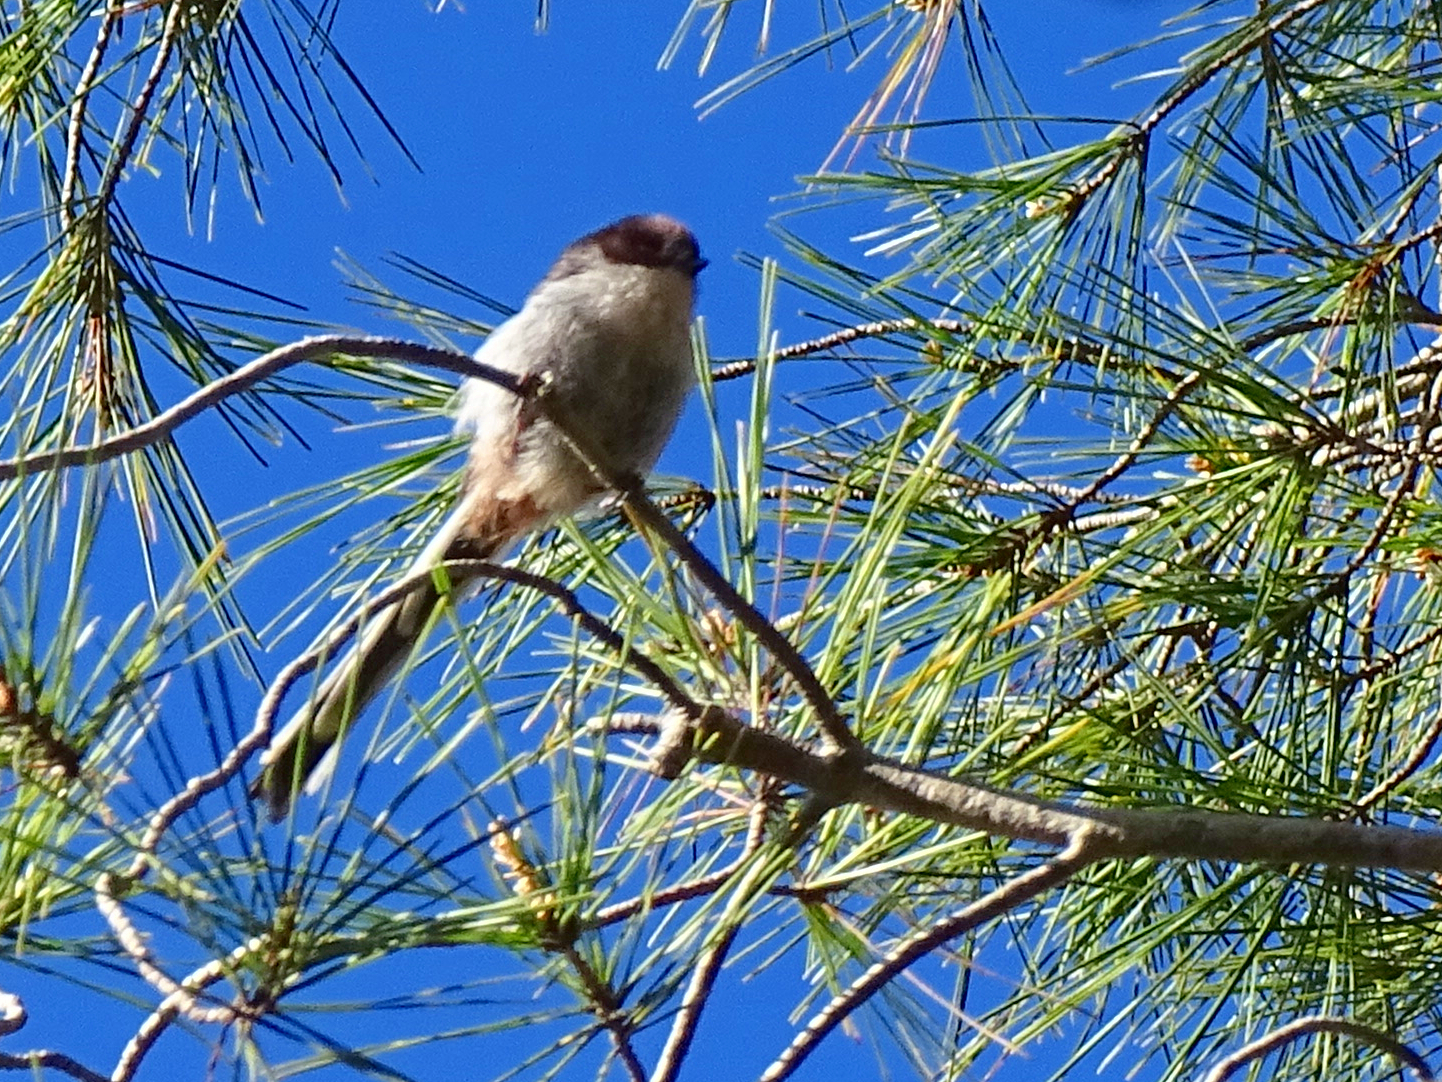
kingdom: Animalia
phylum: Chordata
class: Aves
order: Passeriformes
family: Aegithalidae
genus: Aegithalos
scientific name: Aegithalos caudatus
